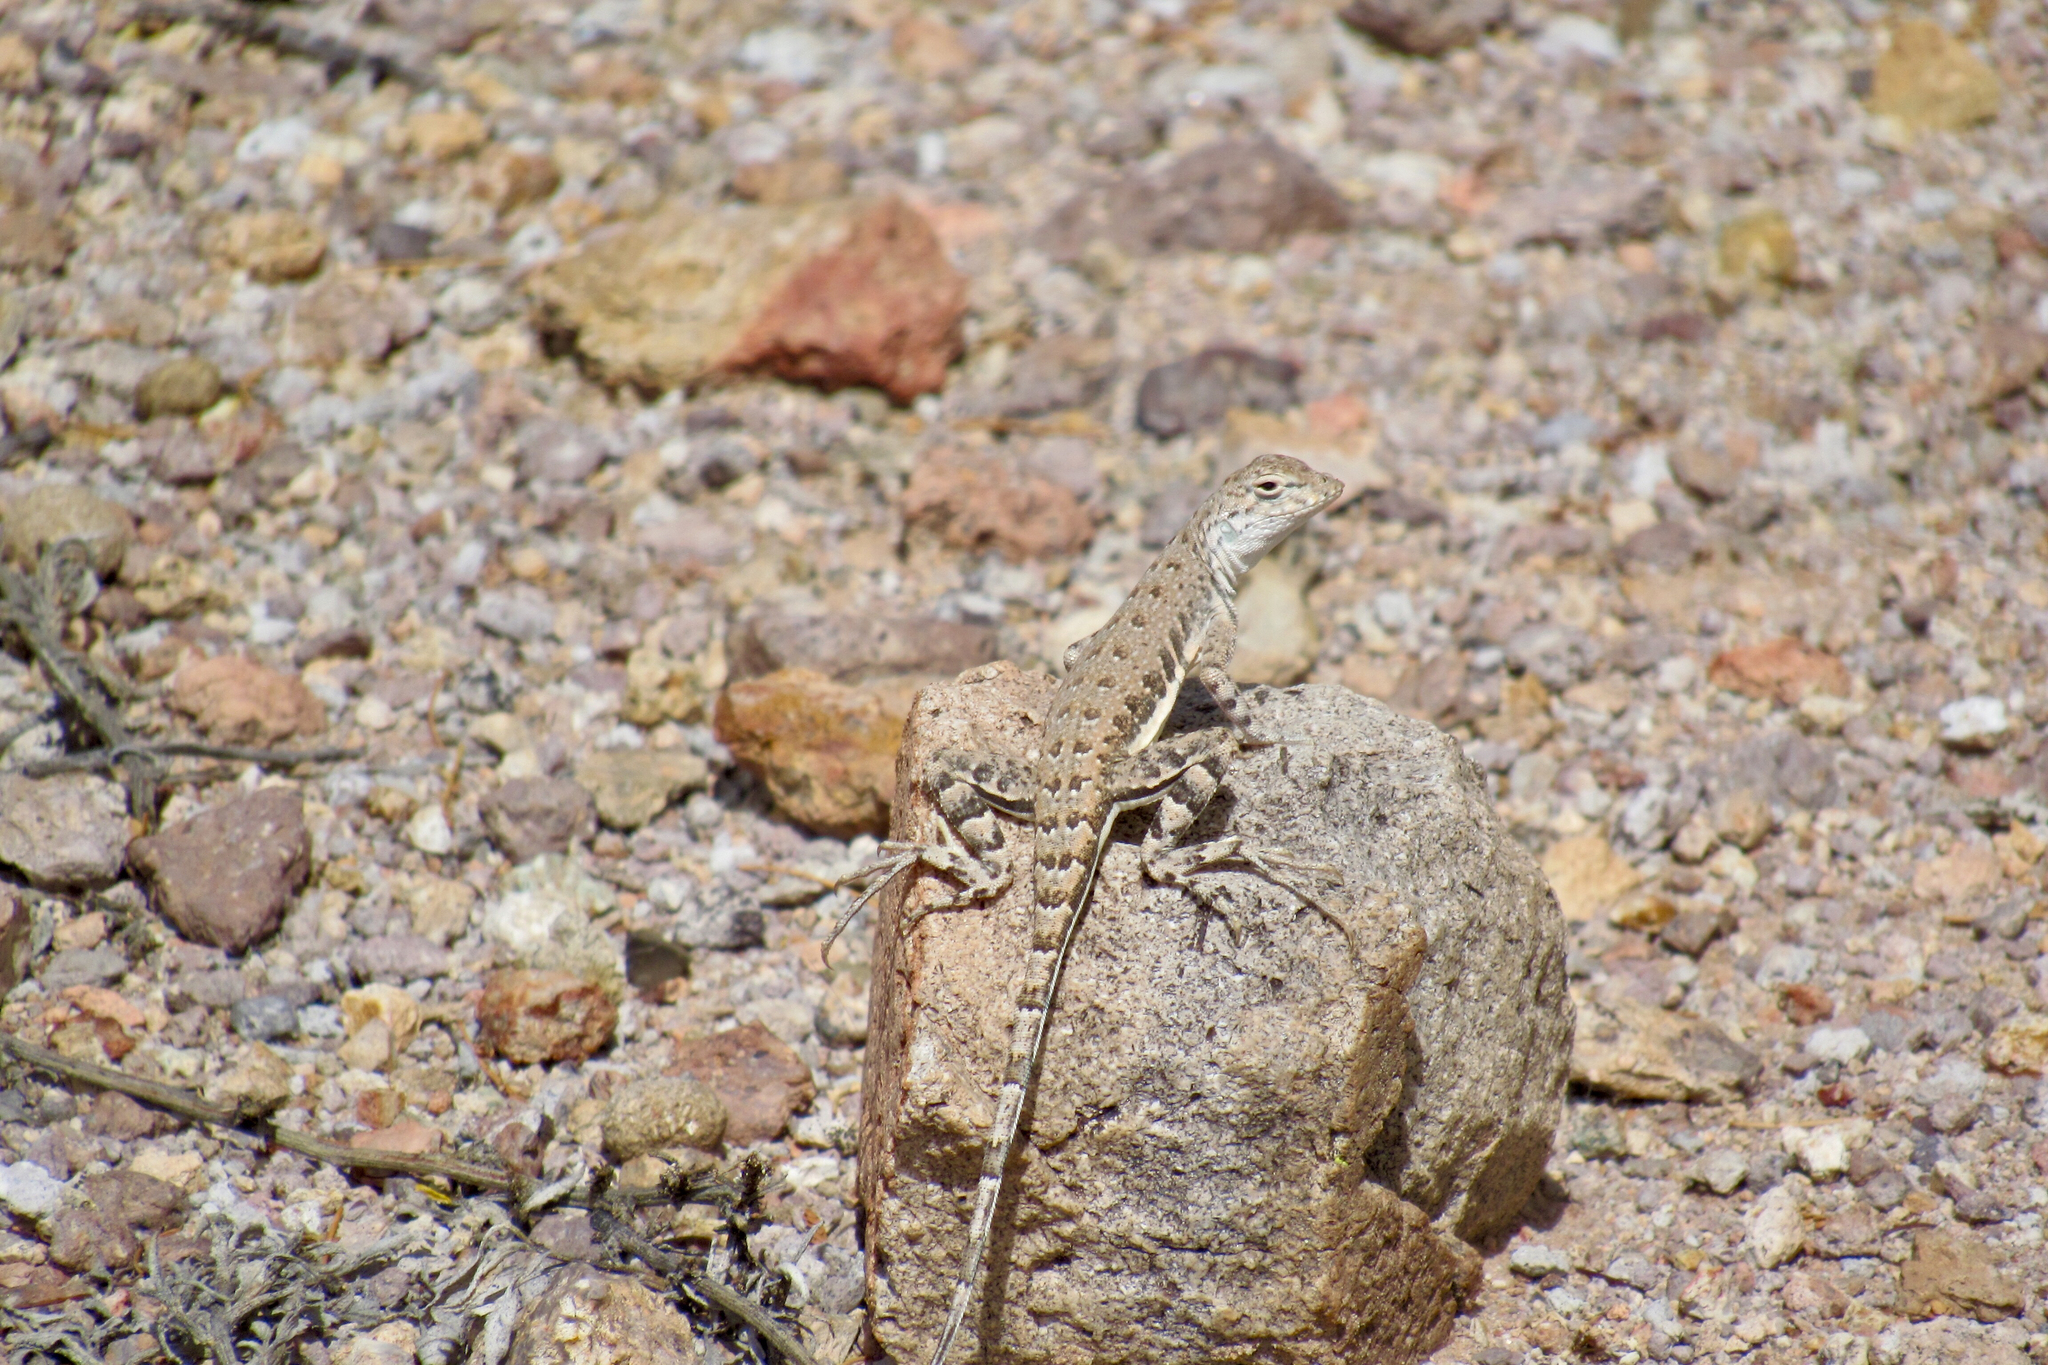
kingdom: Animalia
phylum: Chordata
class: Squamata
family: Phrynosomatidae
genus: Callisaurus
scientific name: Callisaurus draconoides
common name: Zebra-tailed lizard
